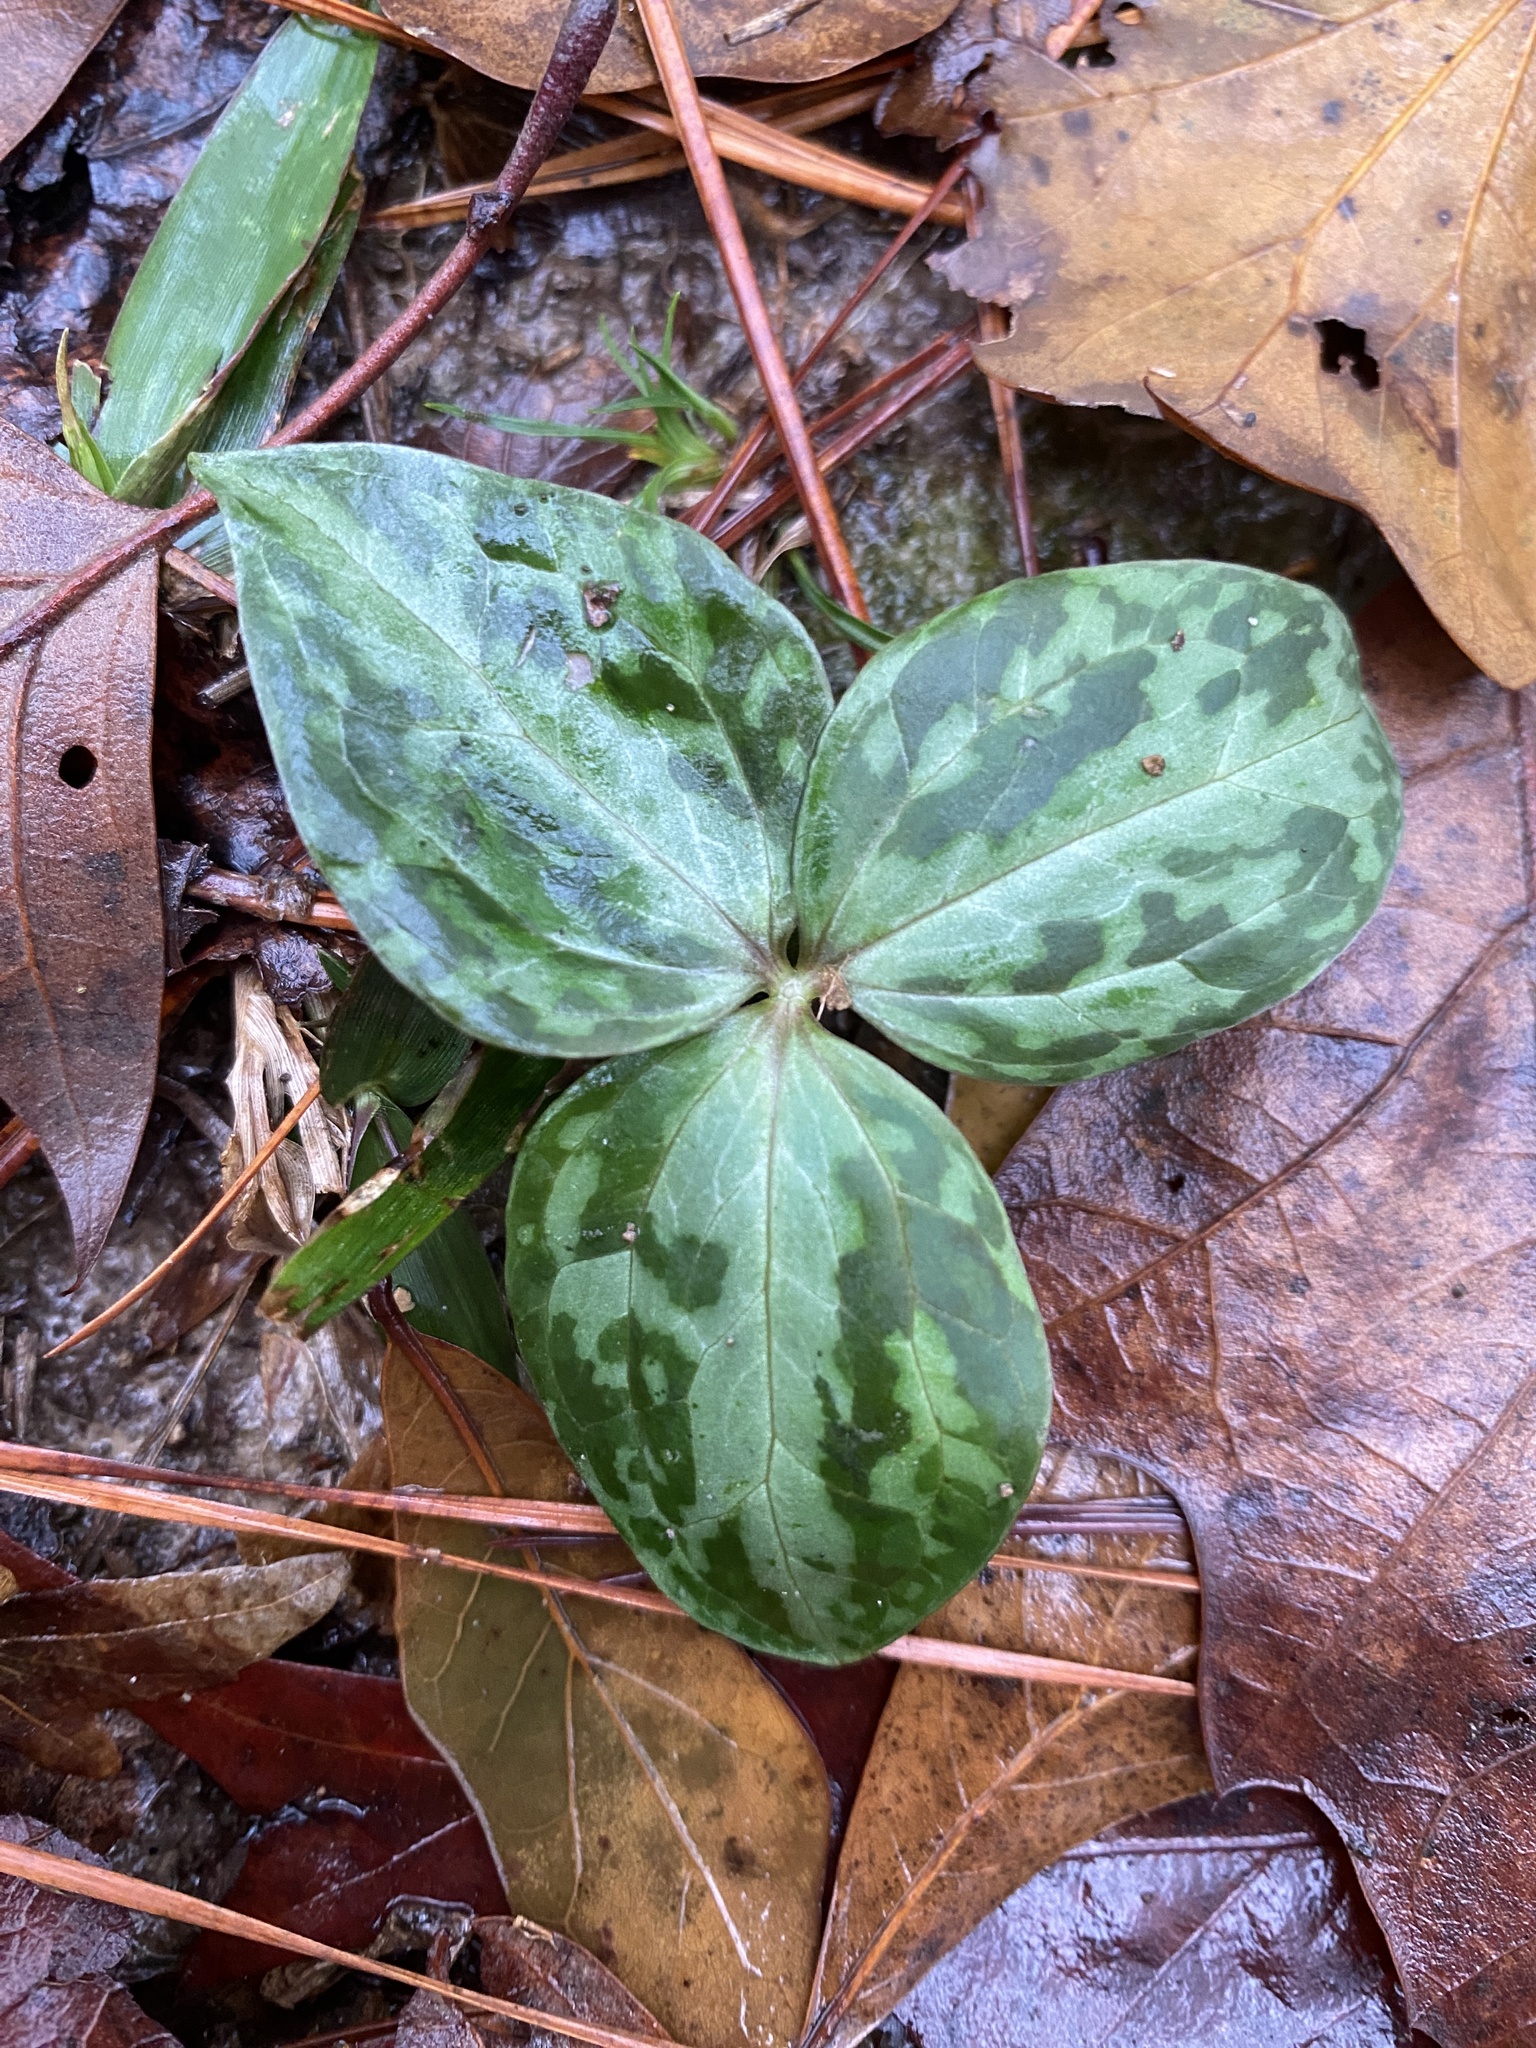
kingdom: Plantae
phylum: Tracheophyta
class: Liliopsida
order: Liliales
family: Melanthiaceae
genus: Trillium
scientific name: Trillium foetidissimum
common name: Mississippi river trillium
